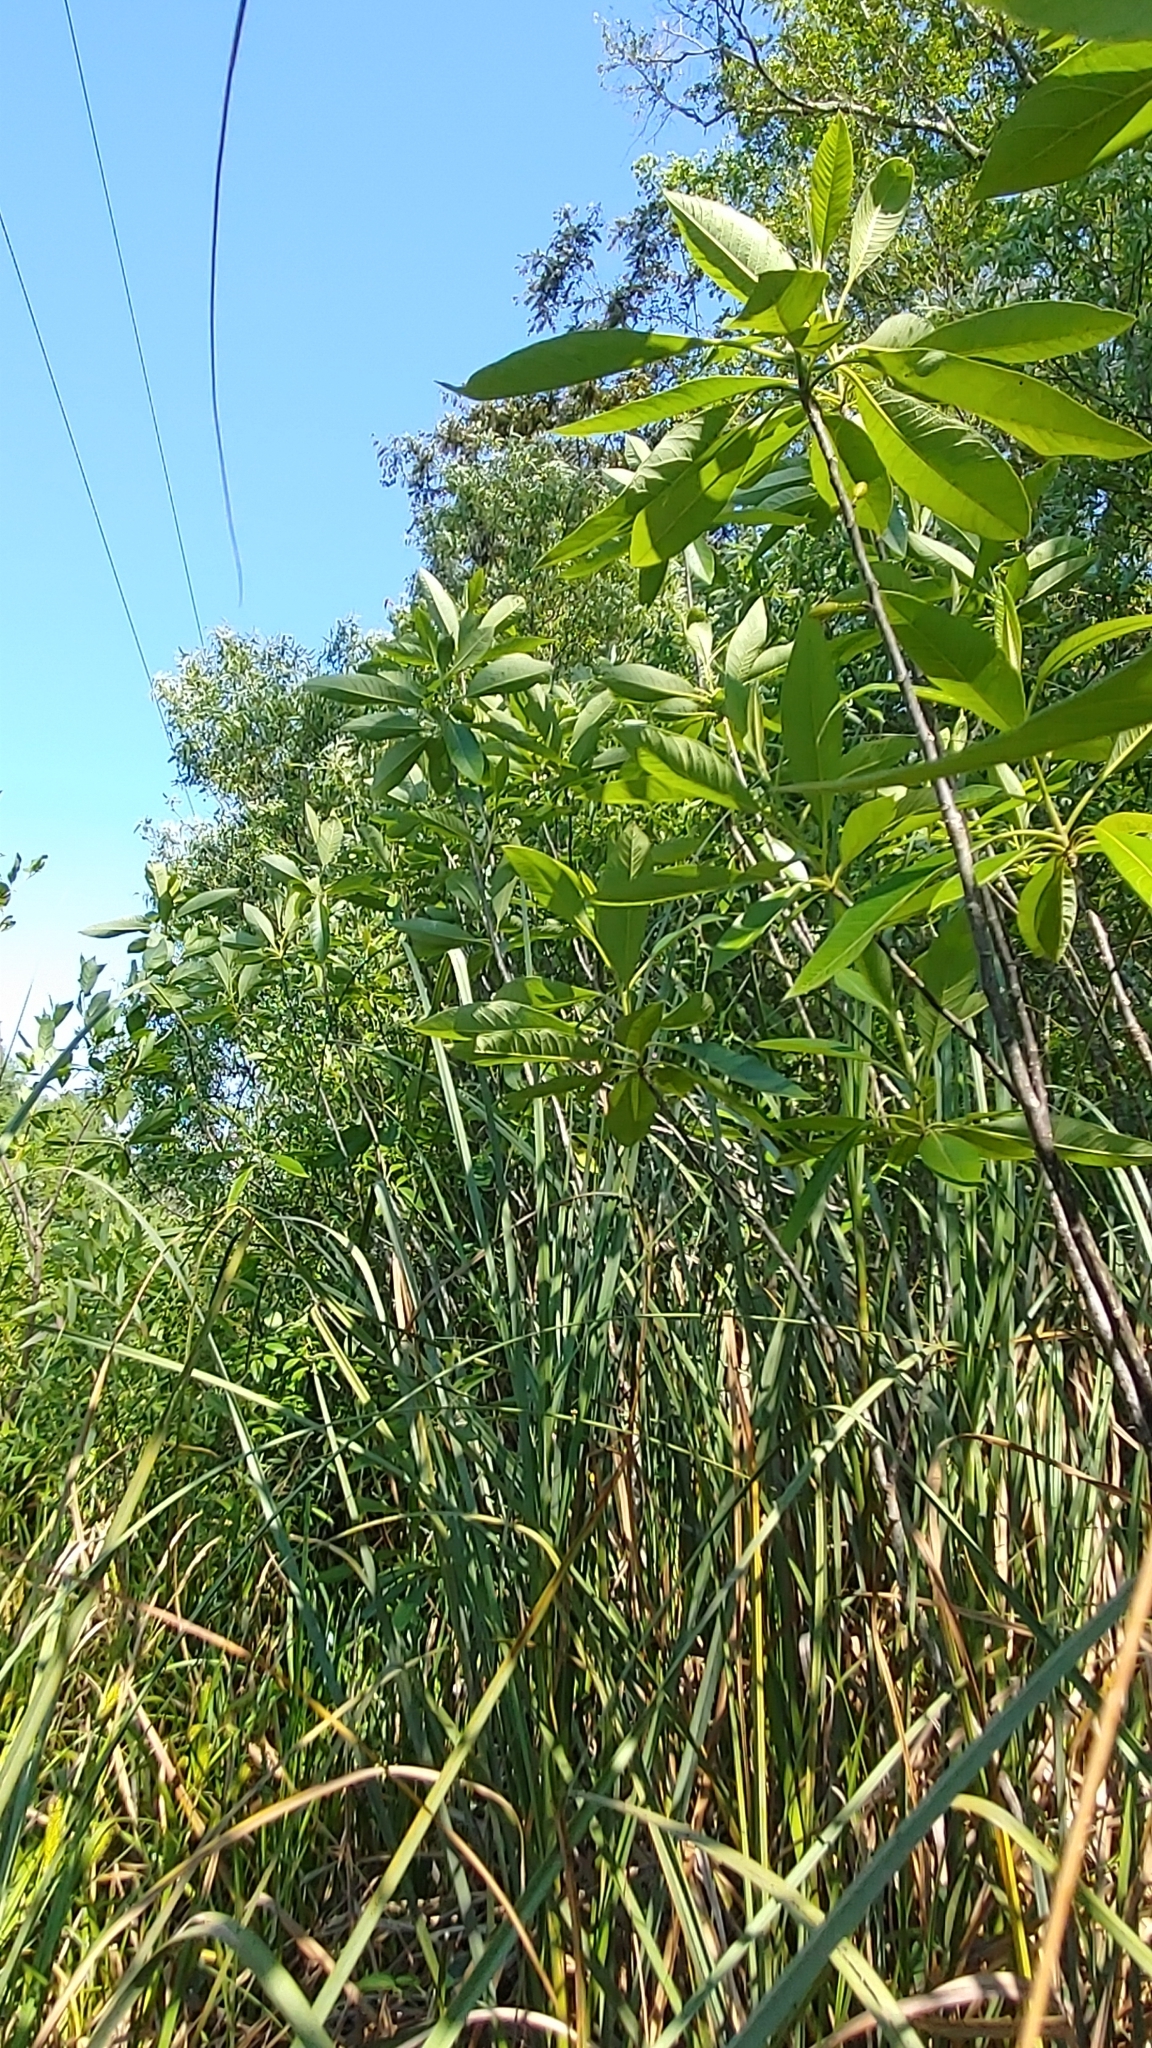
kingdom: Plantae
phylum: Tracheophyta
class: Magnoliopsida
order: Sapindales
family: Simaroubaceae
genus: Leitneria
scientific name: Leitneria floridana
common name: Corkwood
